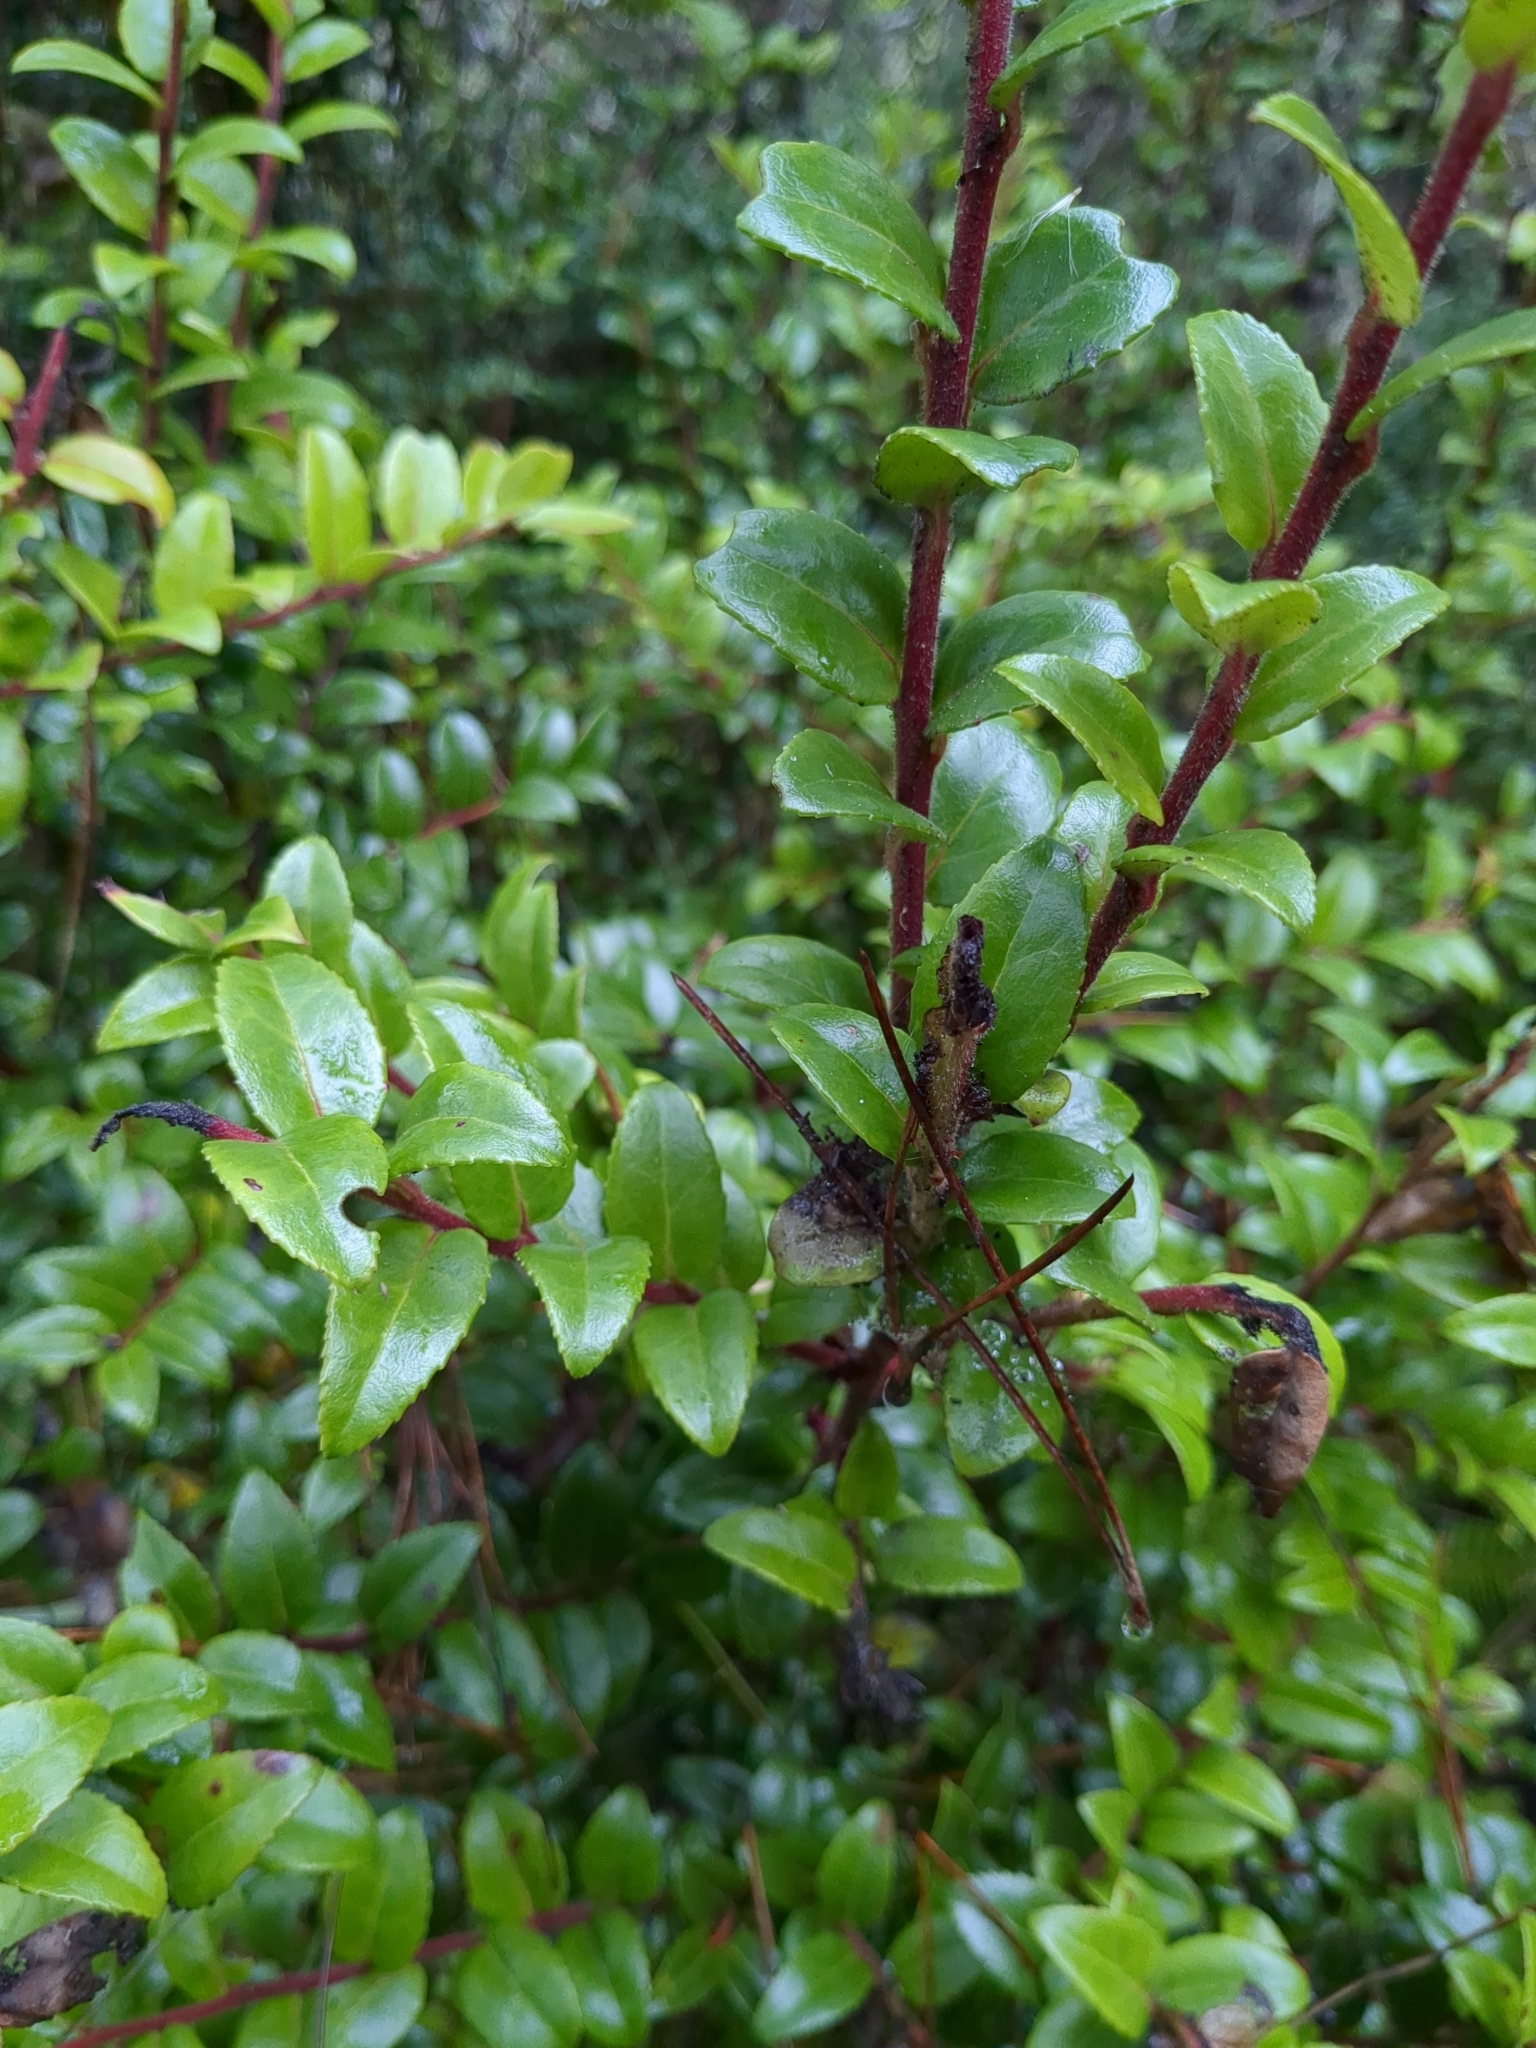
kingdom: Plantae
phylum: Tracheophyta
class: Magnoliopsida
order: Ericales
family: Ericaceae
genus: Vaccinium
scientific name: Vaccinium ovatum
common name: California-huckleberry
